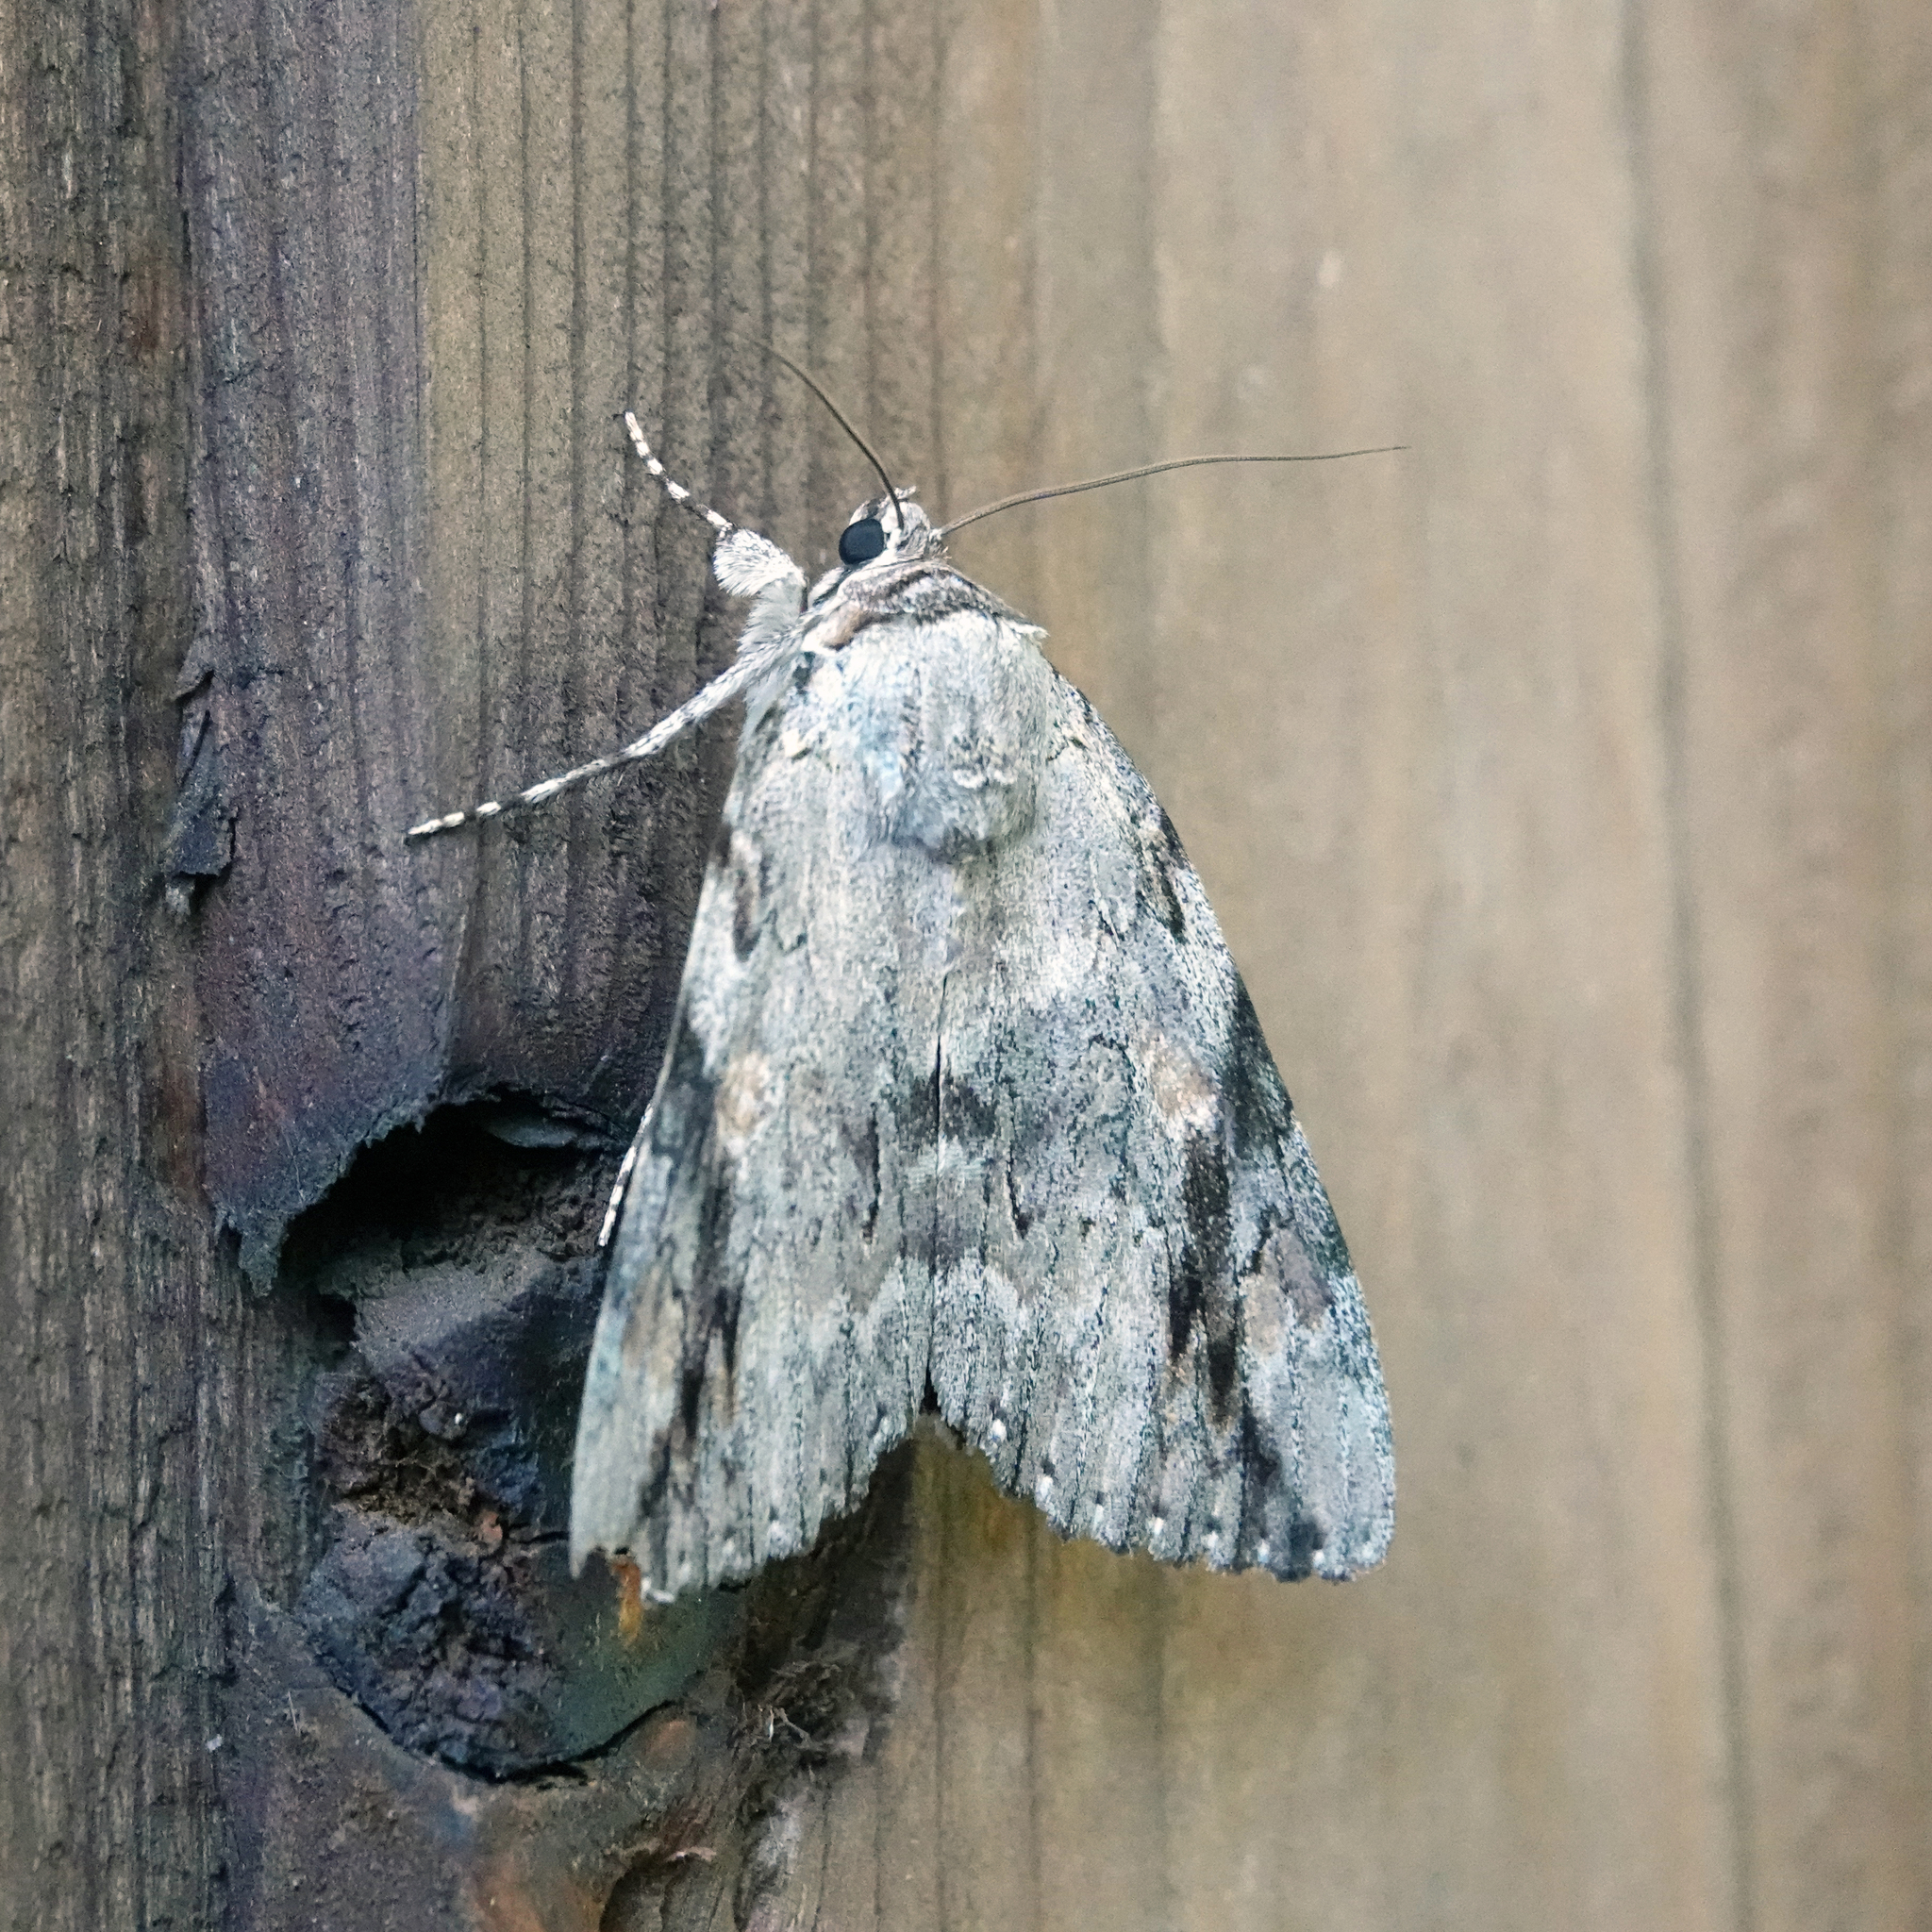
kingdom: Animalia
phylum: Arthropoda
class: Insecta
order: Lepidoptera
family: Erebidae
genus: Catocala
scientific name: Catocala maestosa
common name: Sad underwing
